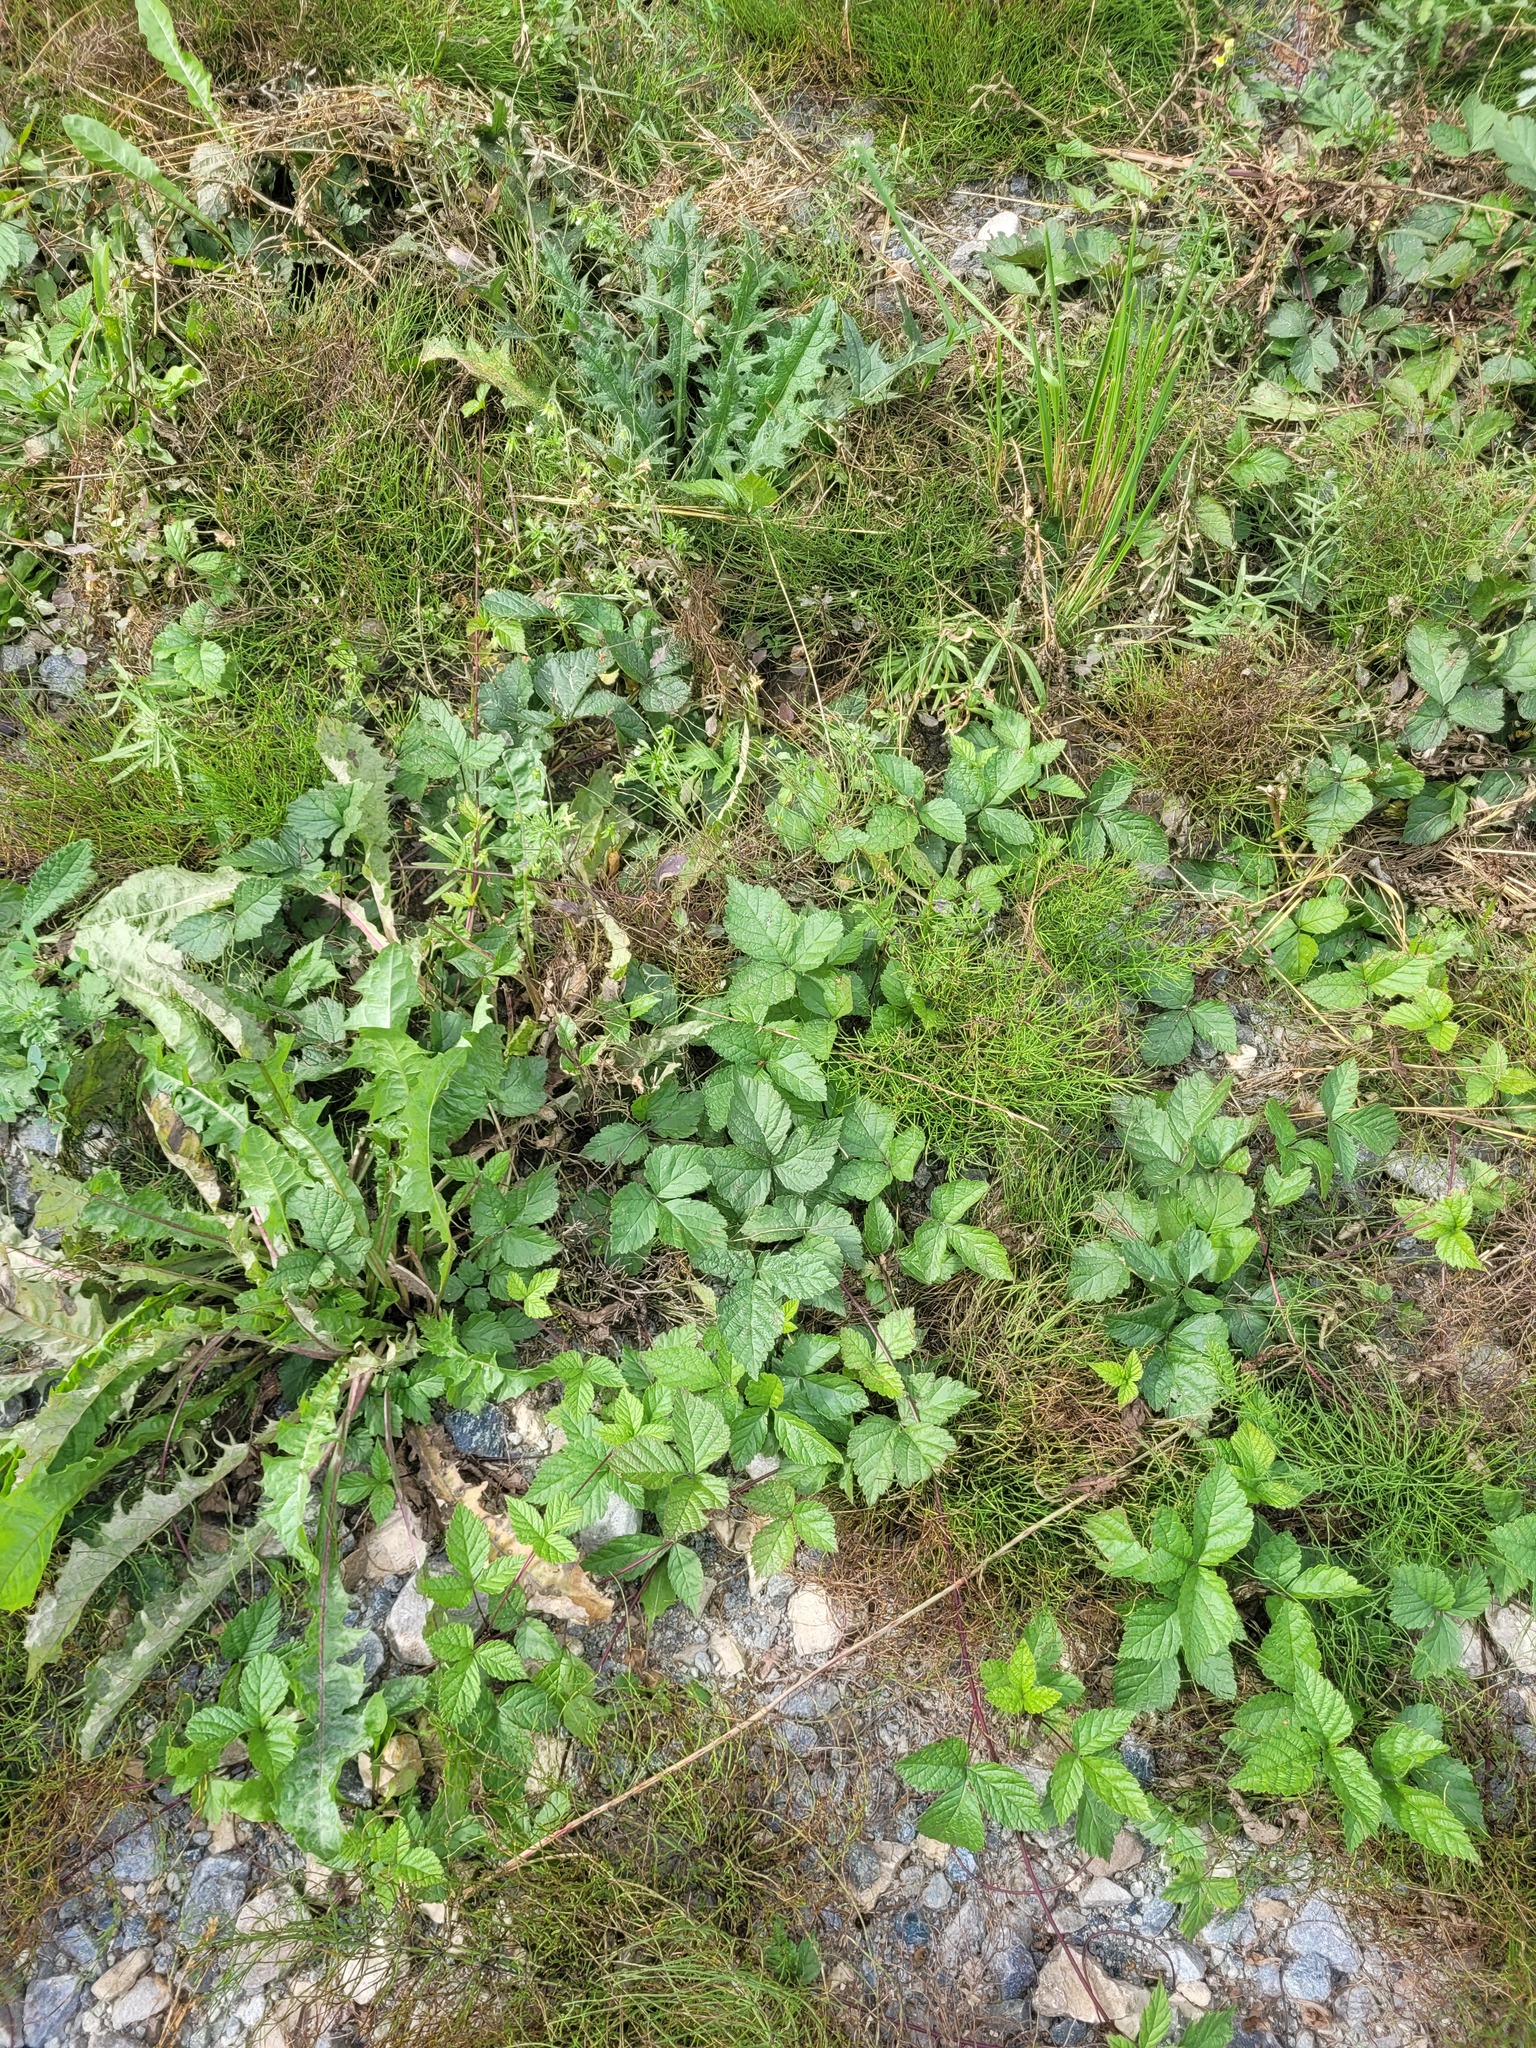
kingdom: Plantae
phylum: Tracheophyta
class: Magnoliopsida
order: Rosales
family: Rosaceae
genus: Rubus
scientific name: Rubus saxatilis
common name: Stone bramble
